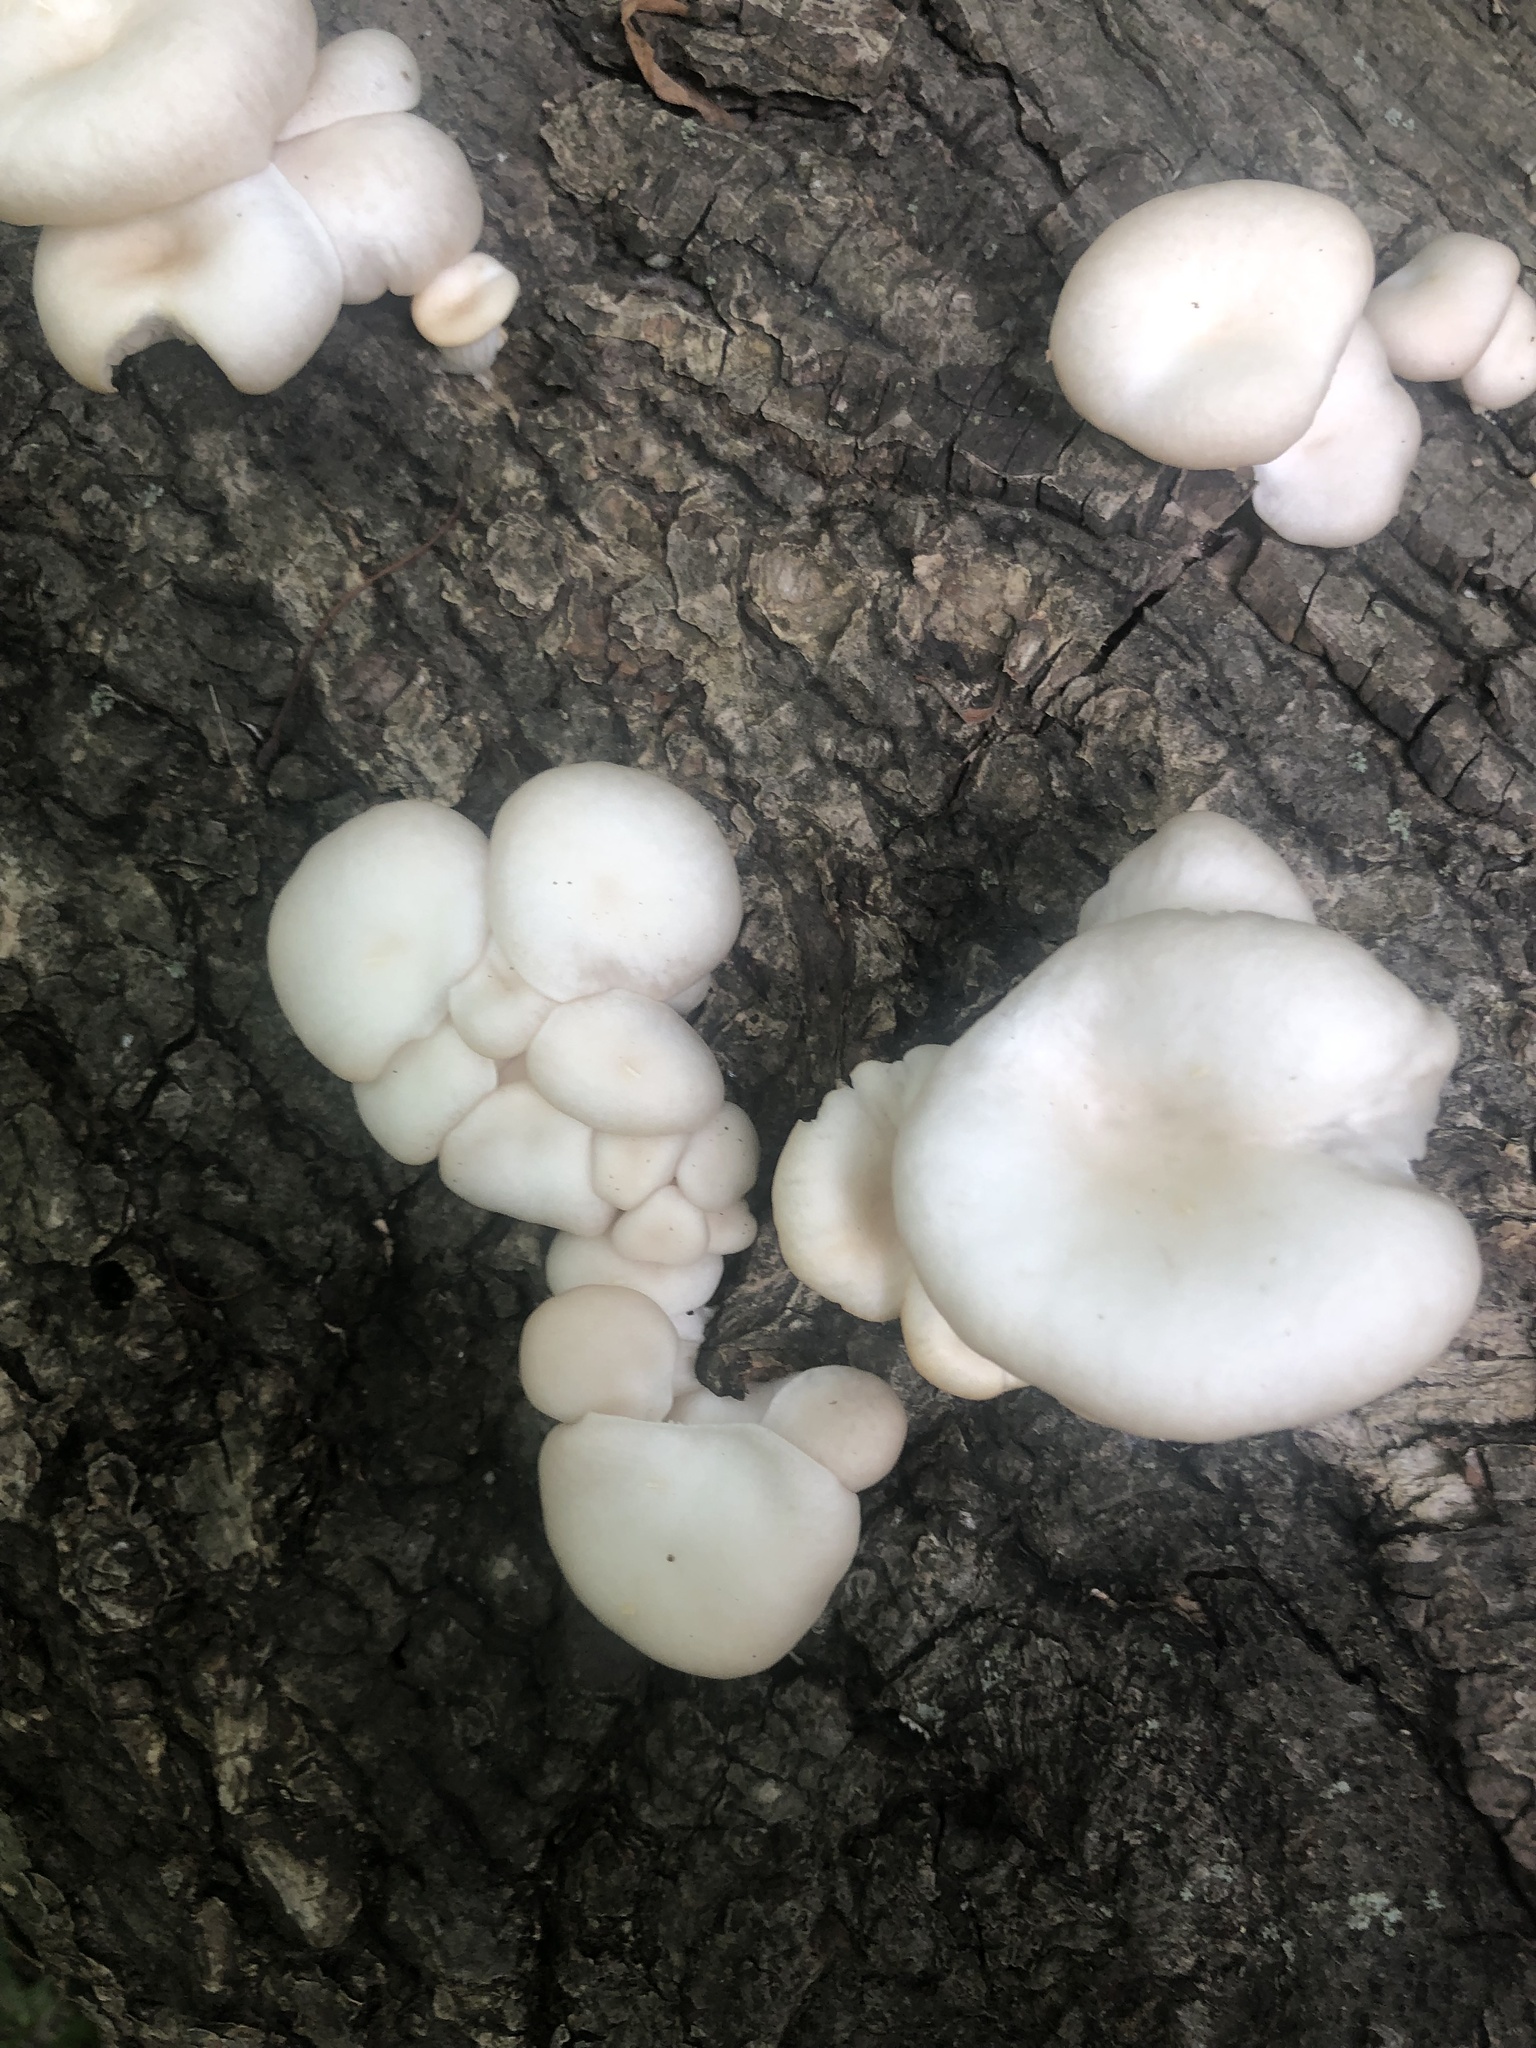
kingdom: Fungi
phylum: Basidiomycota
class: Agaricomycetes
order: Agaricales
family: Pleurotaceae
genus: Pleurotus
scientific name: Pleurotus pulmonarius
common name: Pale oyster
